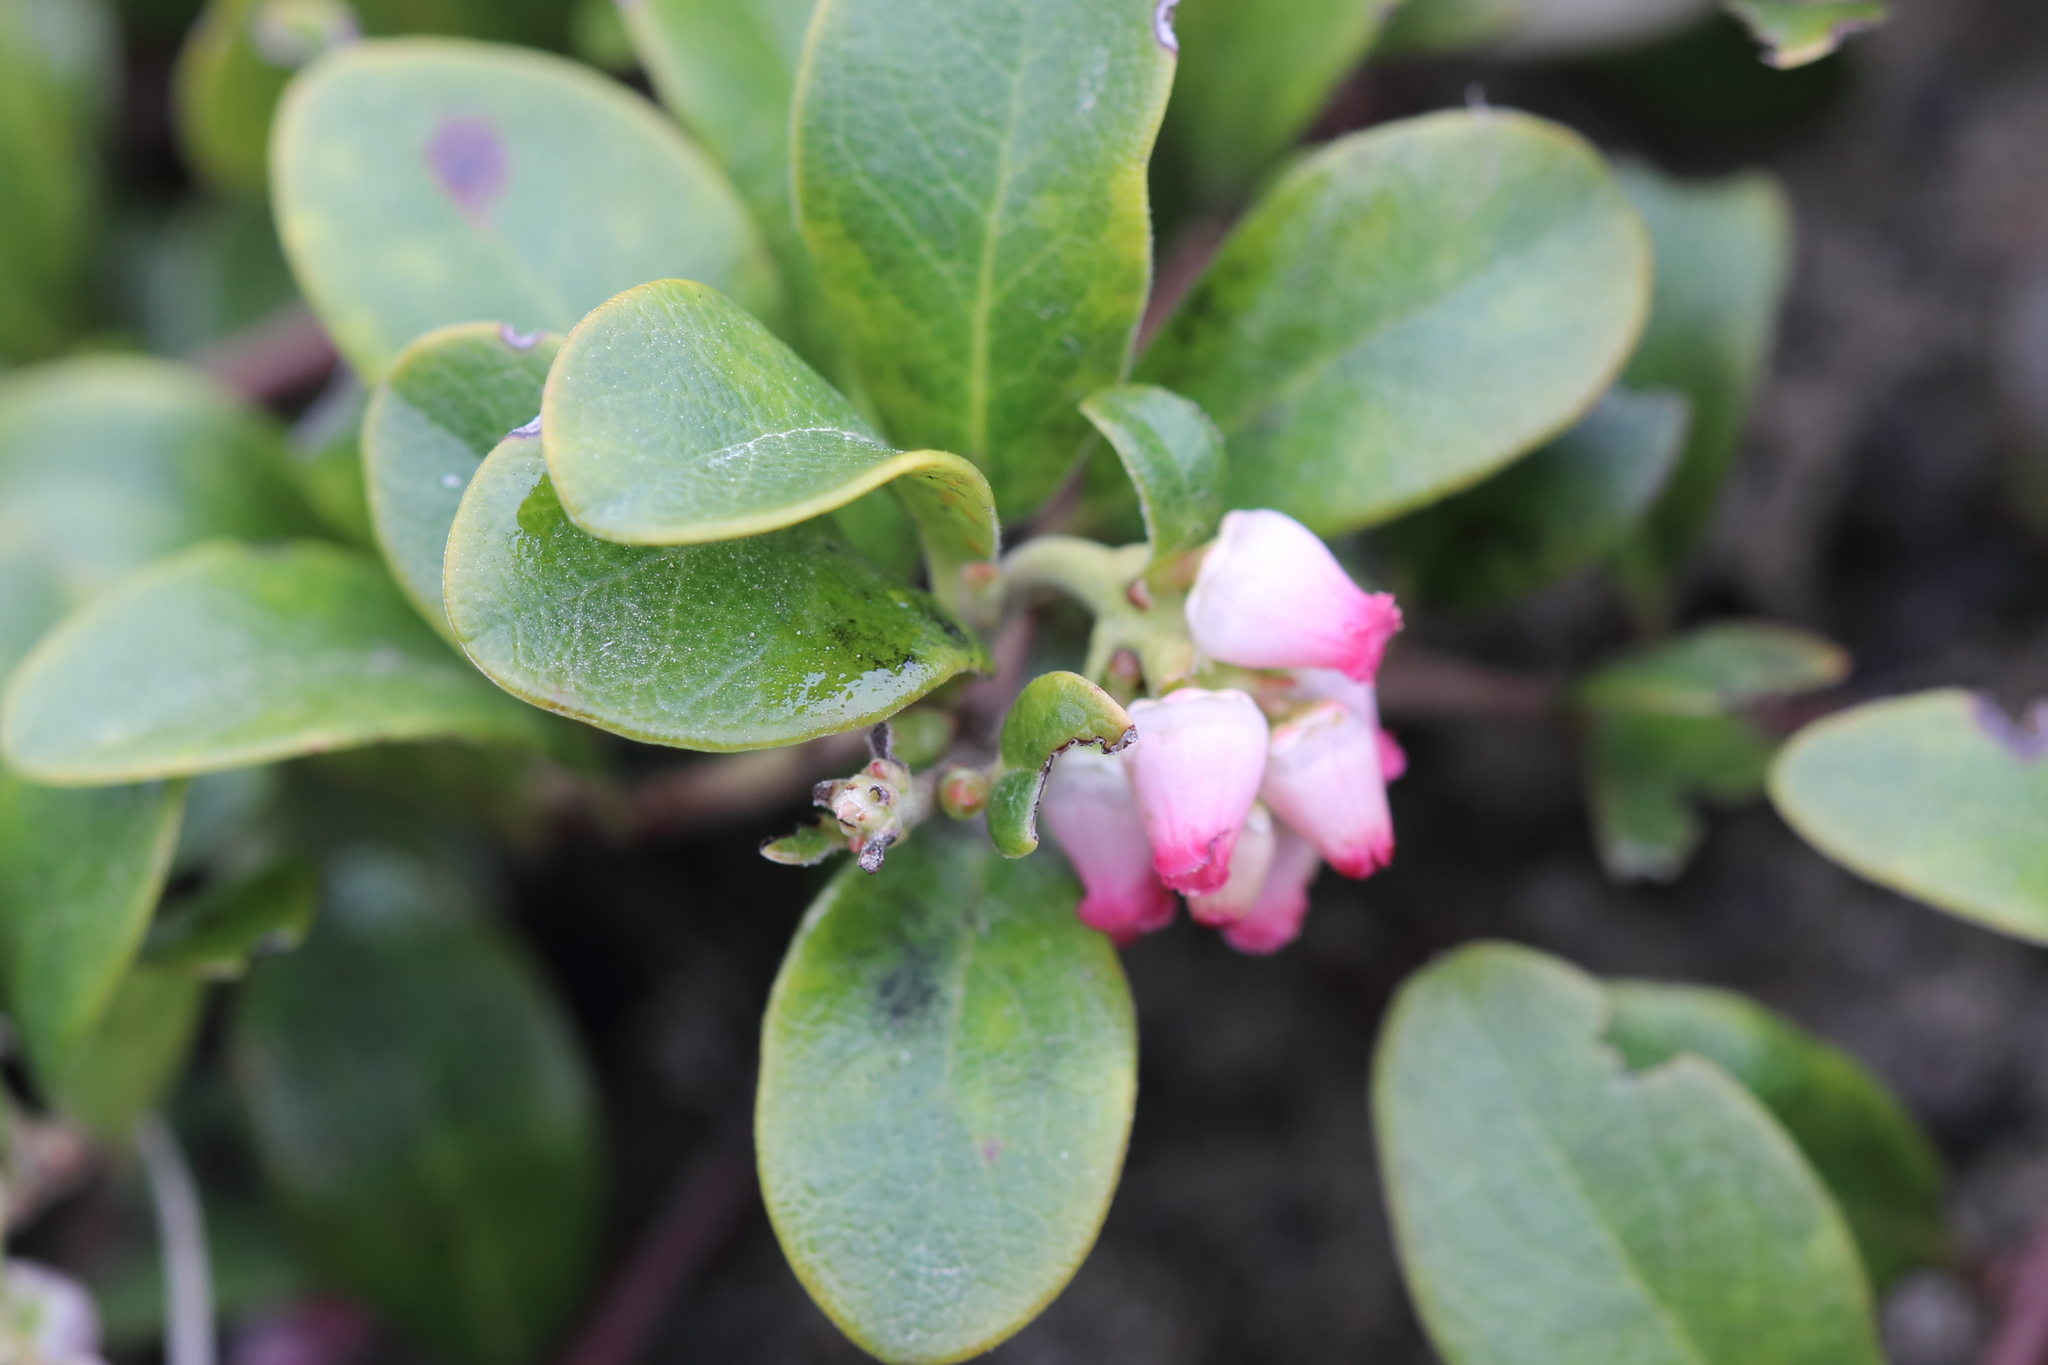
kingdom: Plantae
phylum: Tracheophyta
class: Magnoliopsida
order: Ericales
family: Ericaceae
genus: Arctostaphylos
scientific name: Arctostaphylos uva-ursi
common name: Bearberry
